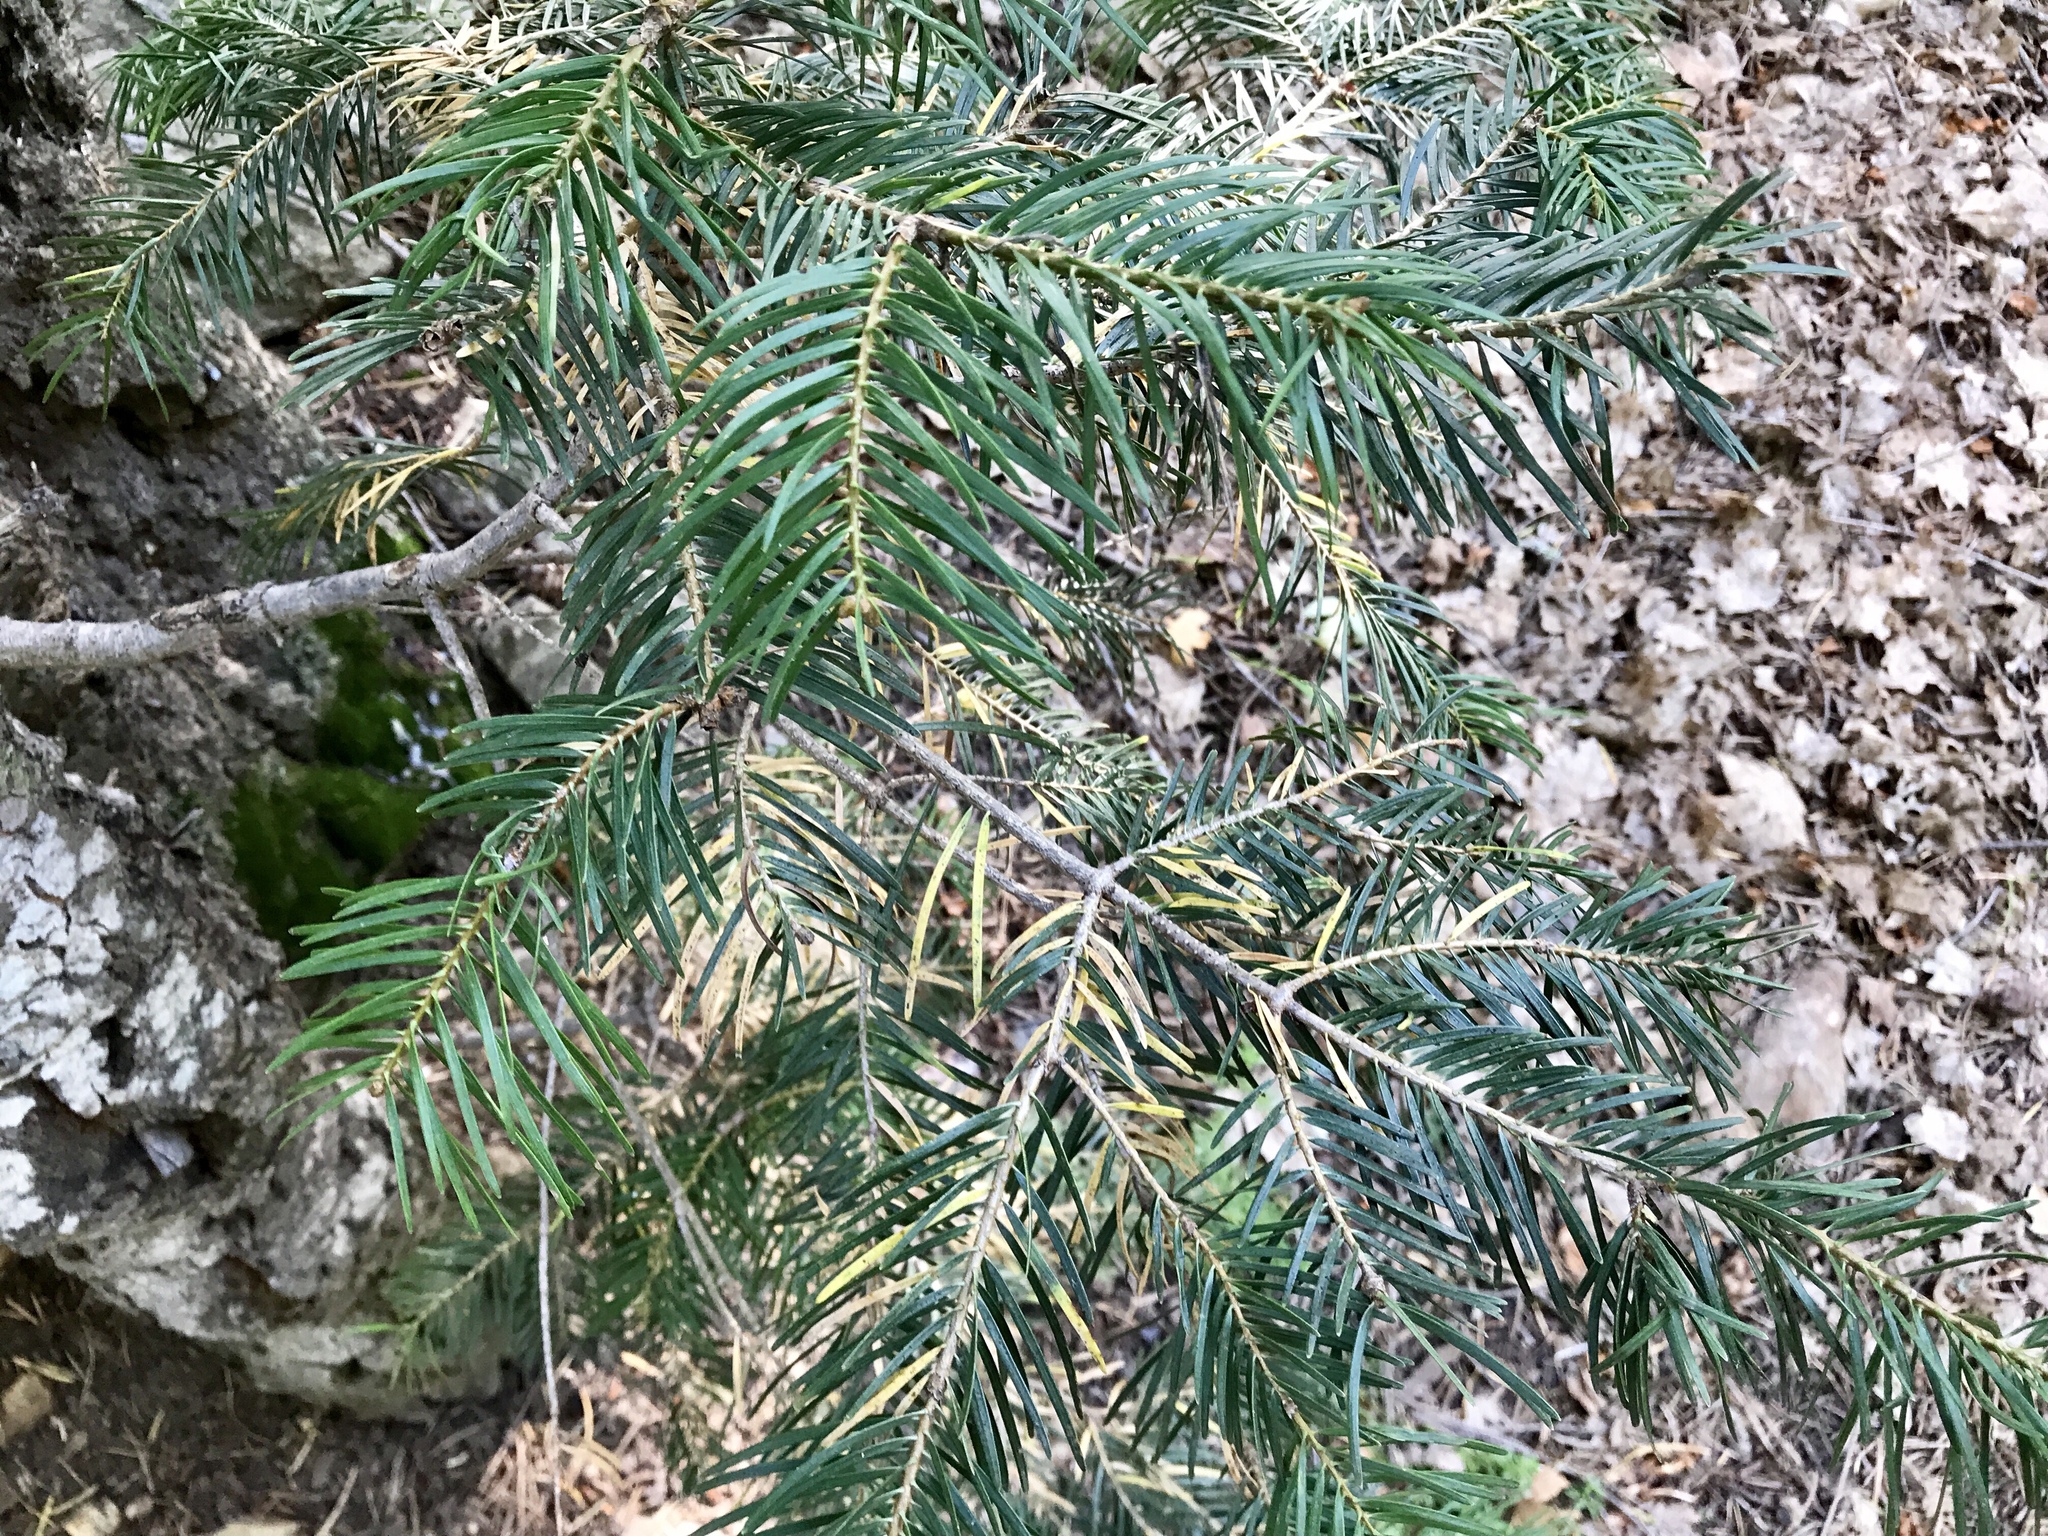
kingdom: Plantae
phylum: Tracheophyta
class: Pinopsida
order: Pinales
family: Pinaceae
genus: Pseudotsuga
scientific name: Pseudotsuga menziesii
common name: Douglas fir
